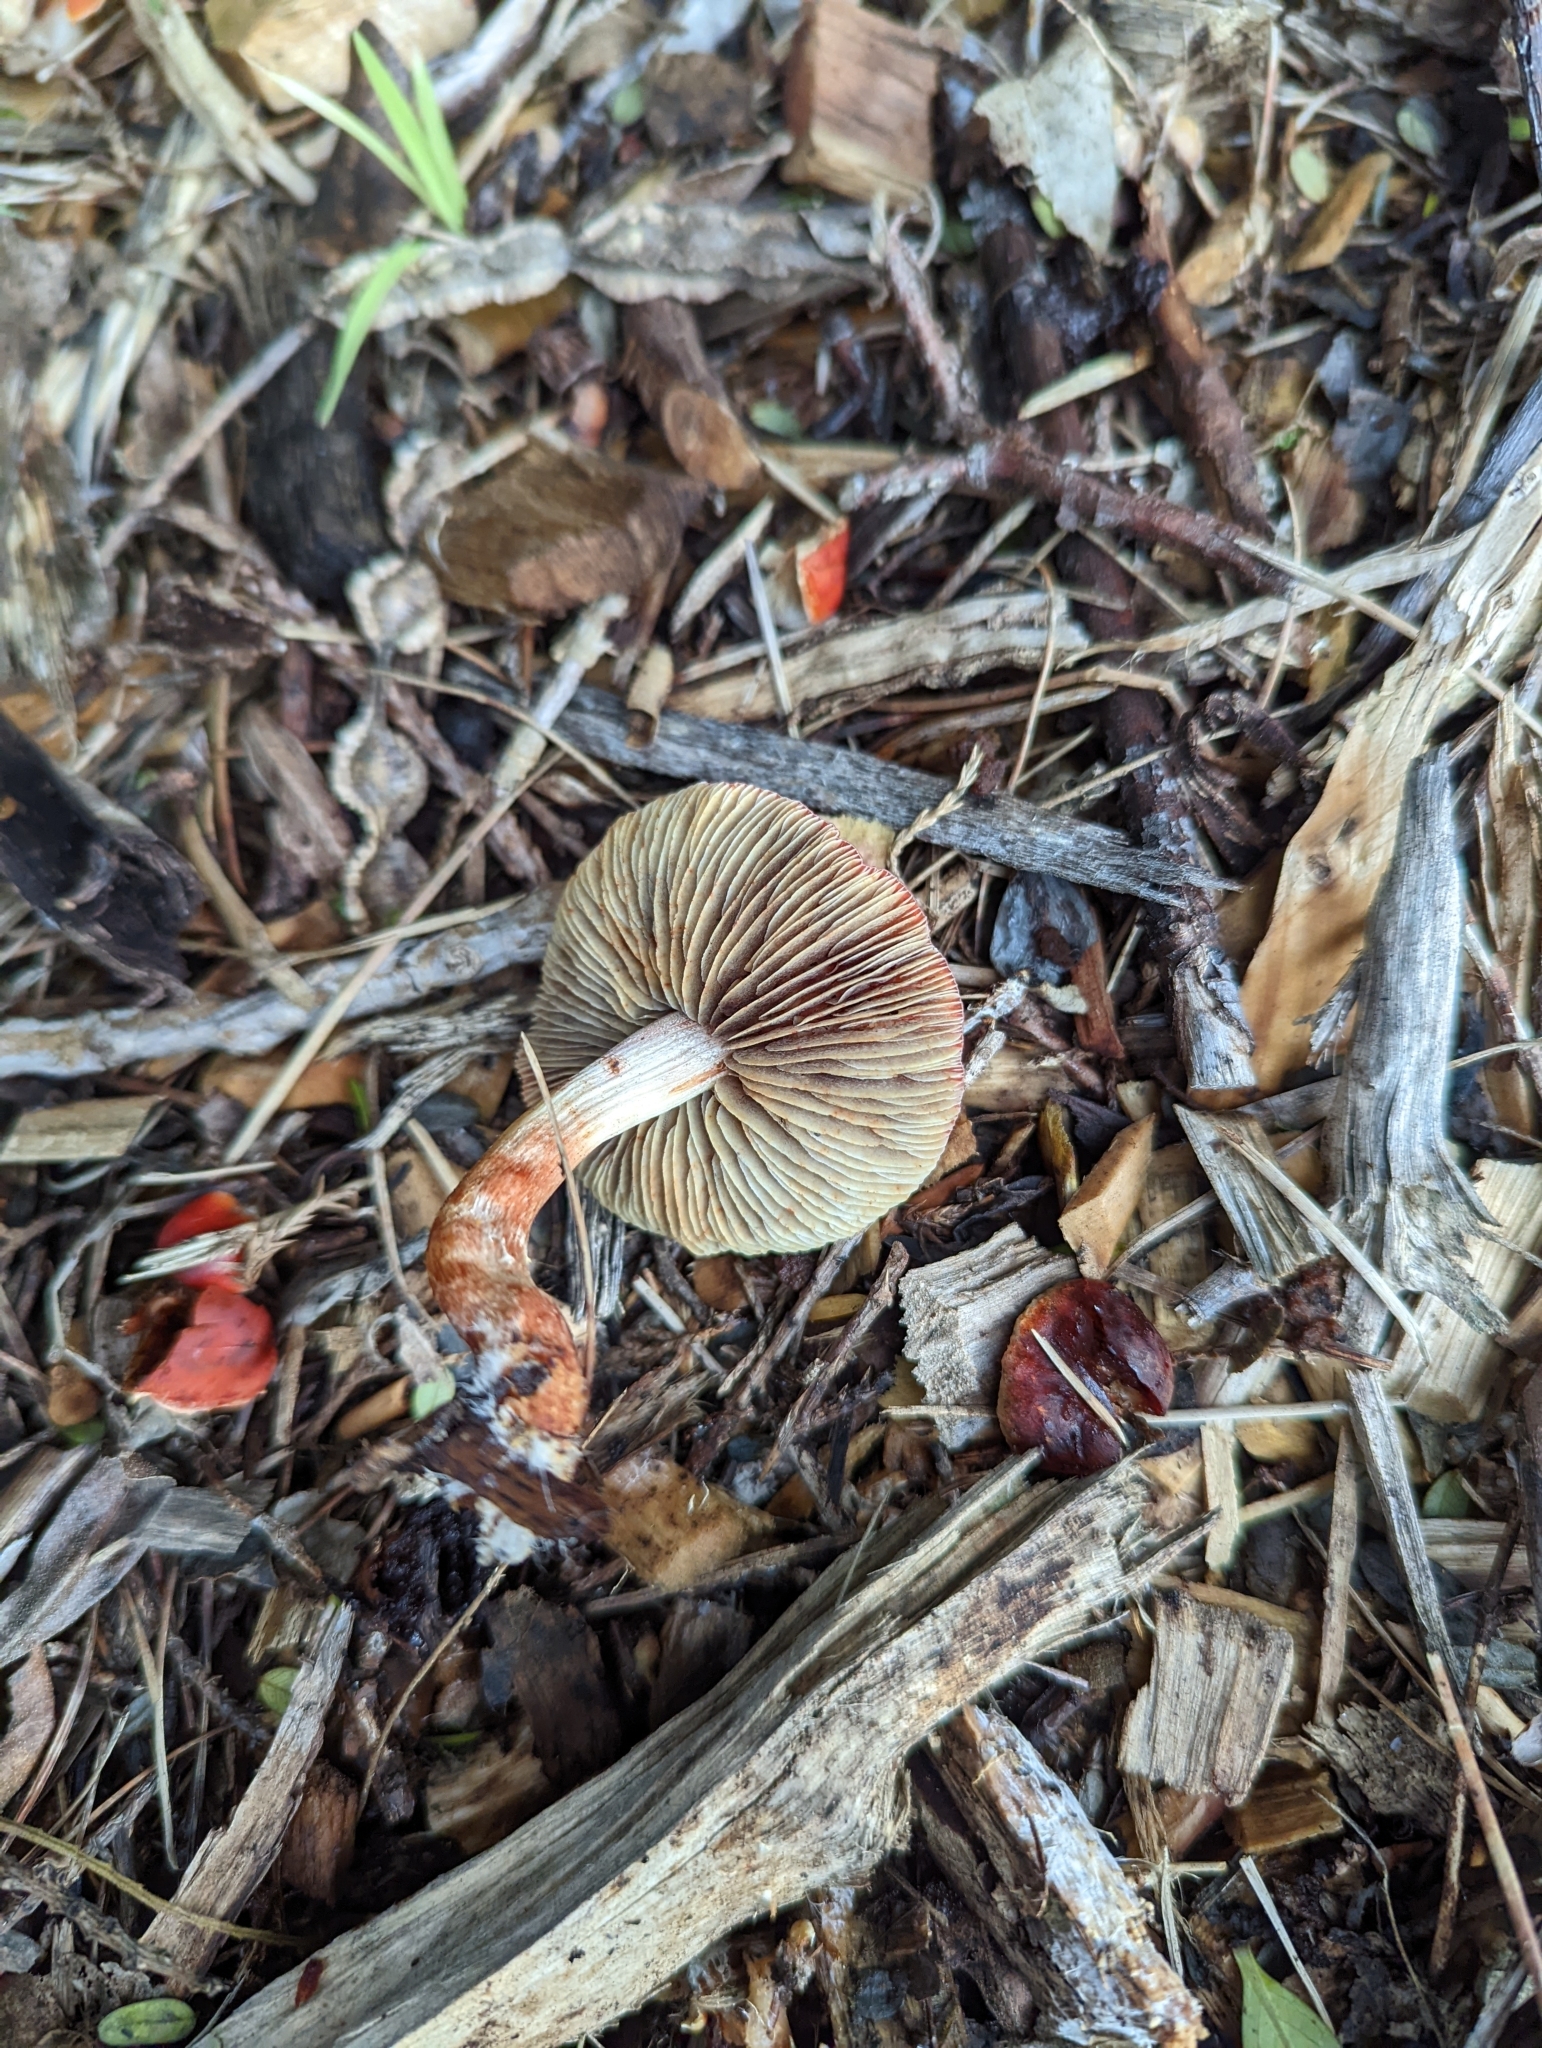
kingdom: Fungi
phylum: Basidiomycota
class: Agaricomycetes
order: Agaricales
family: Strophariaceae
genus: Leratiomyces
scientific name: Leratiomyces ceres
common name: Redlead roundhead
